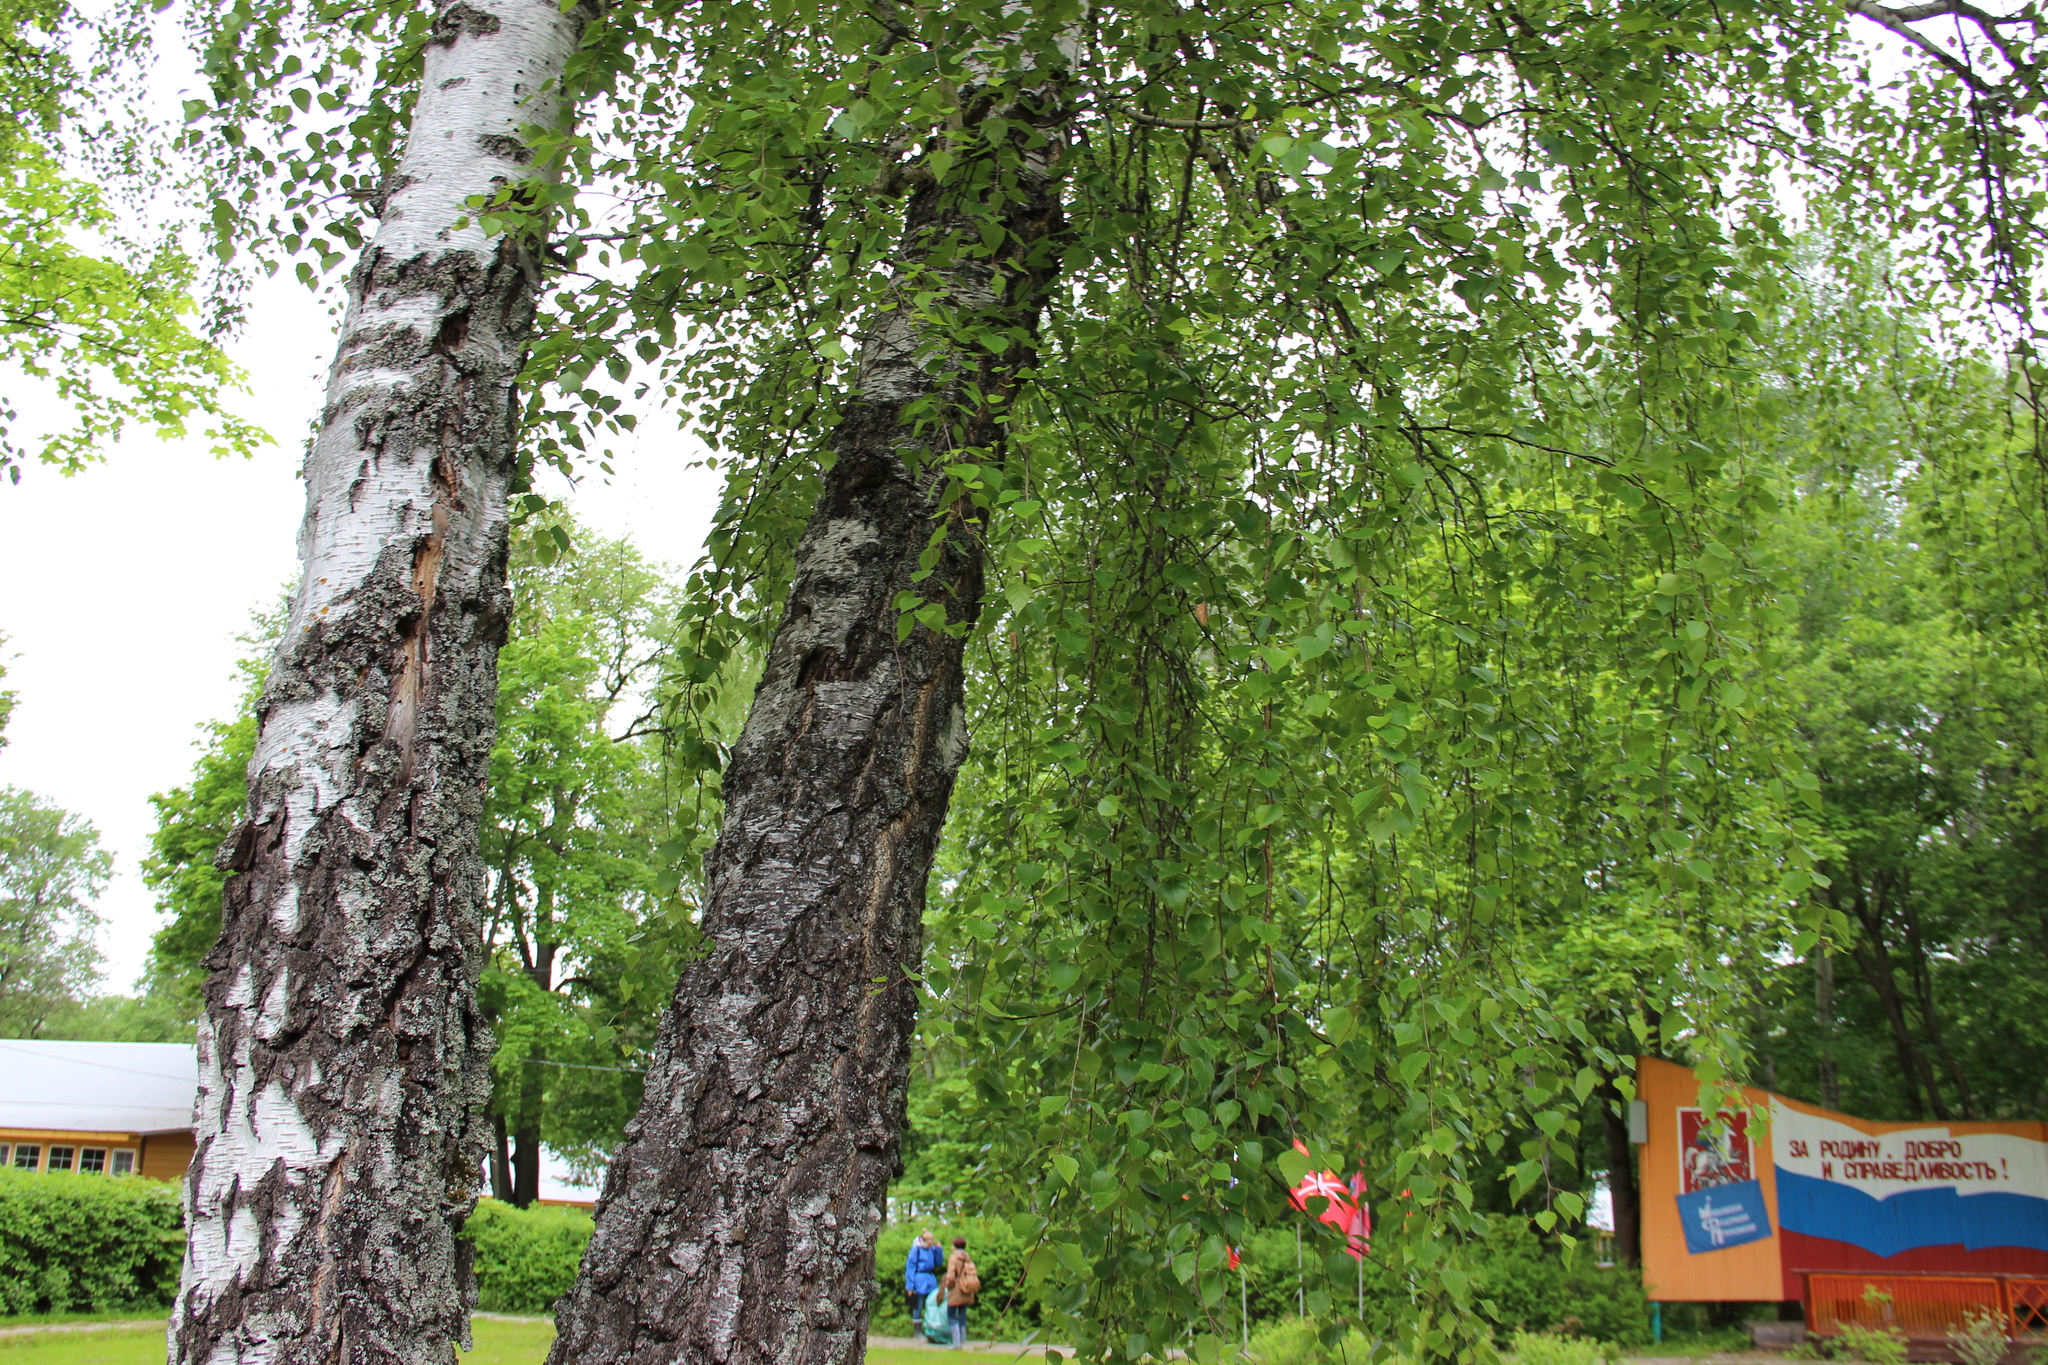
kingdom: Plantae
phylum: Tracheophyta
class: Magnoliopsida
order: Fagales
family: Betulaceae
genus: Betula
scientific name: Betula pendula
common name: Silver birch
